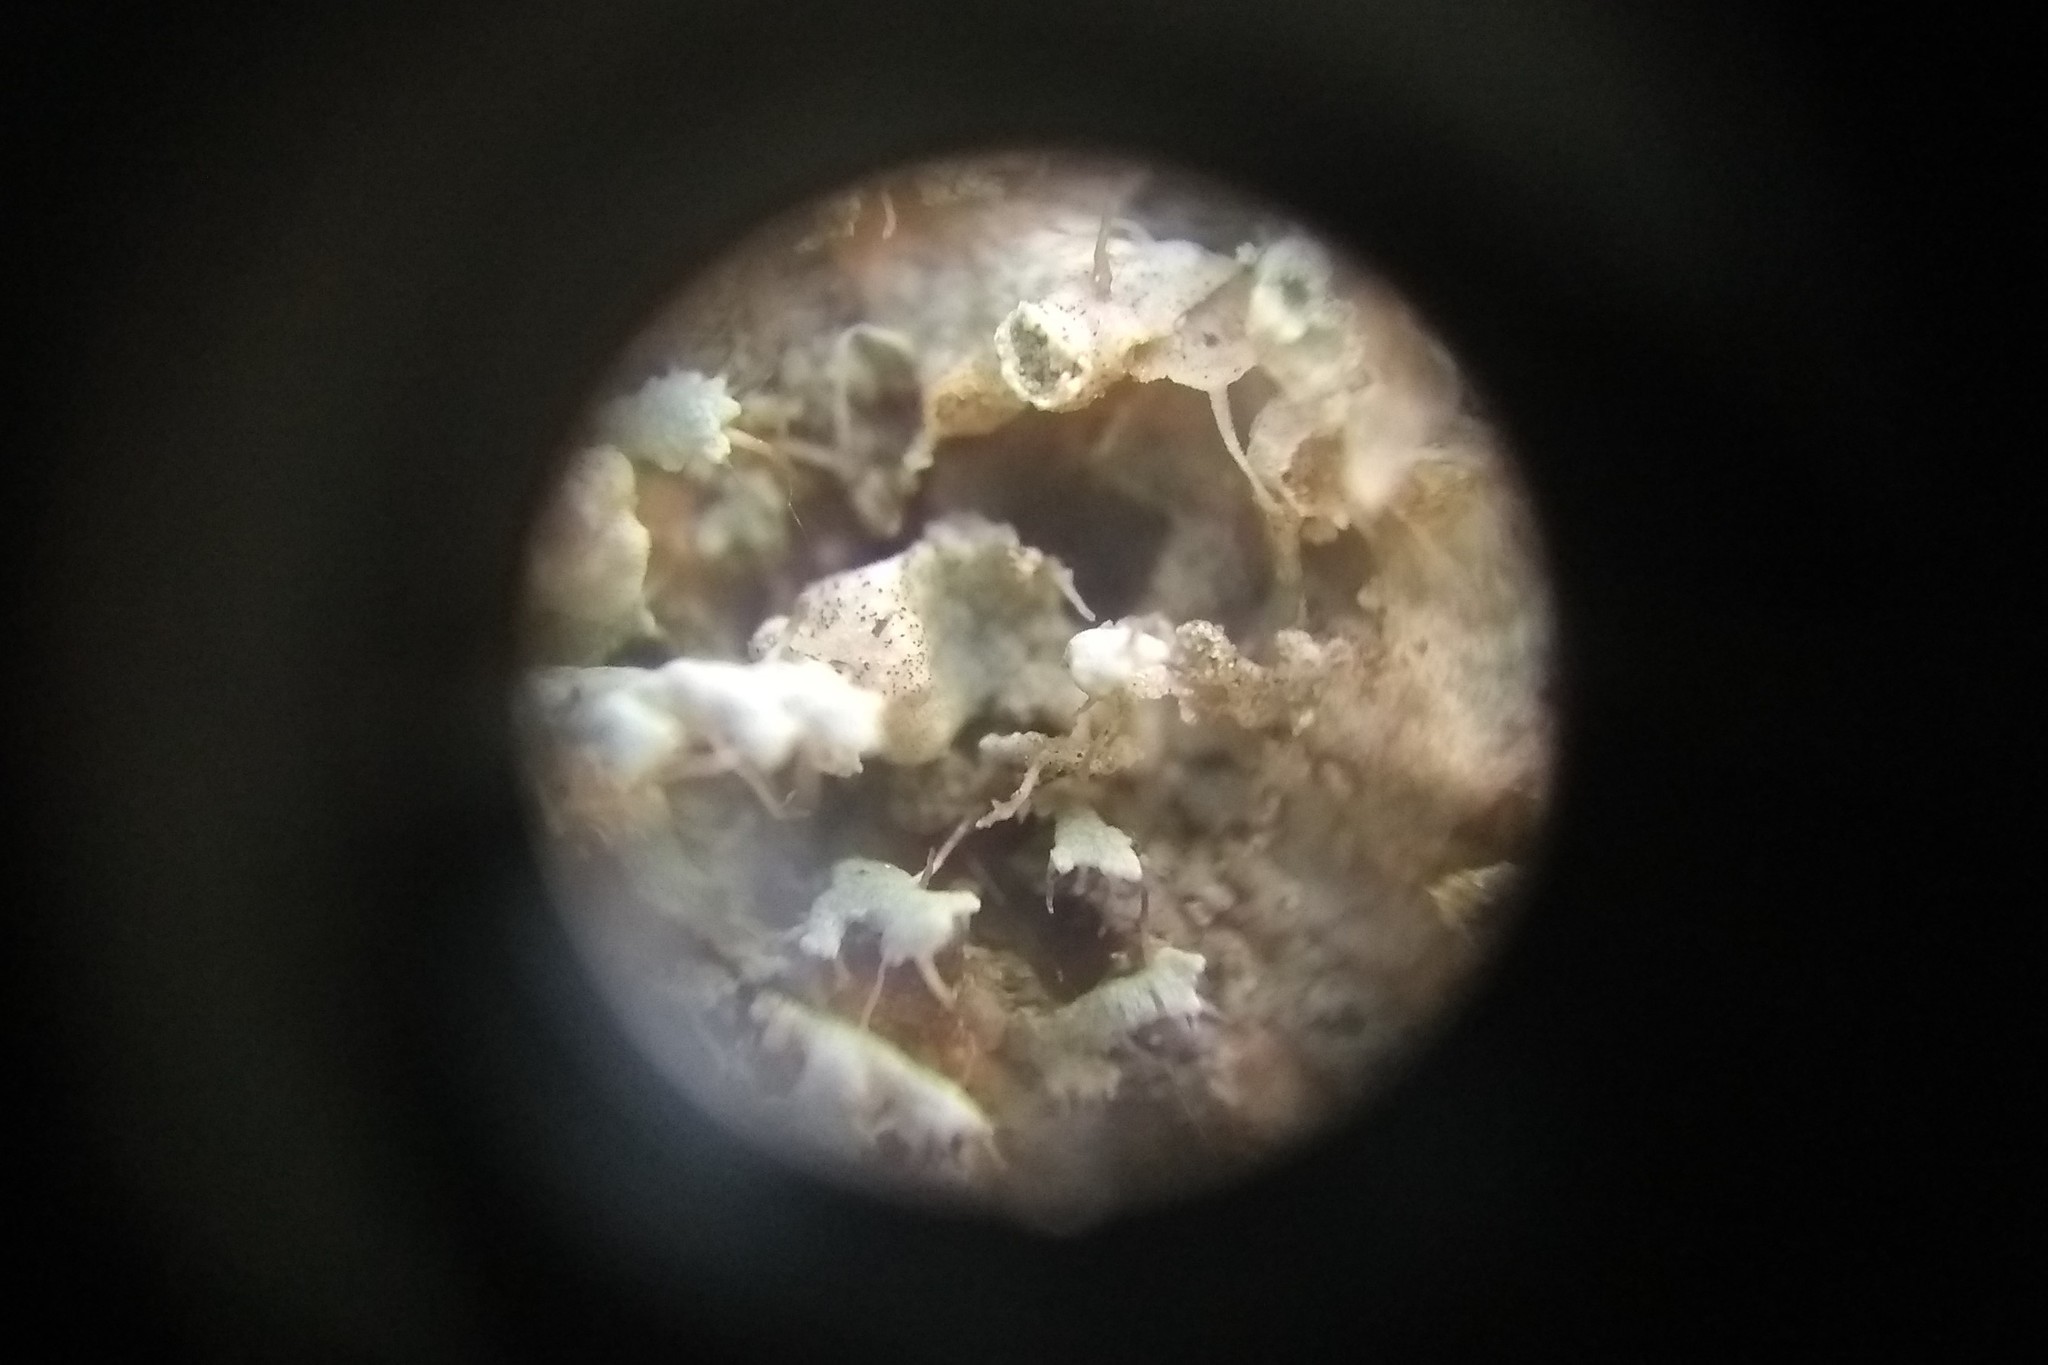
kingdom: Fungi
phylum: Ascomycota
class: Lecanoromycetes
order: Caliciales
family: Physciaceae
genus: Physcia
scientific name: Physcia adscendens
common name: Hooded rosette lichen
